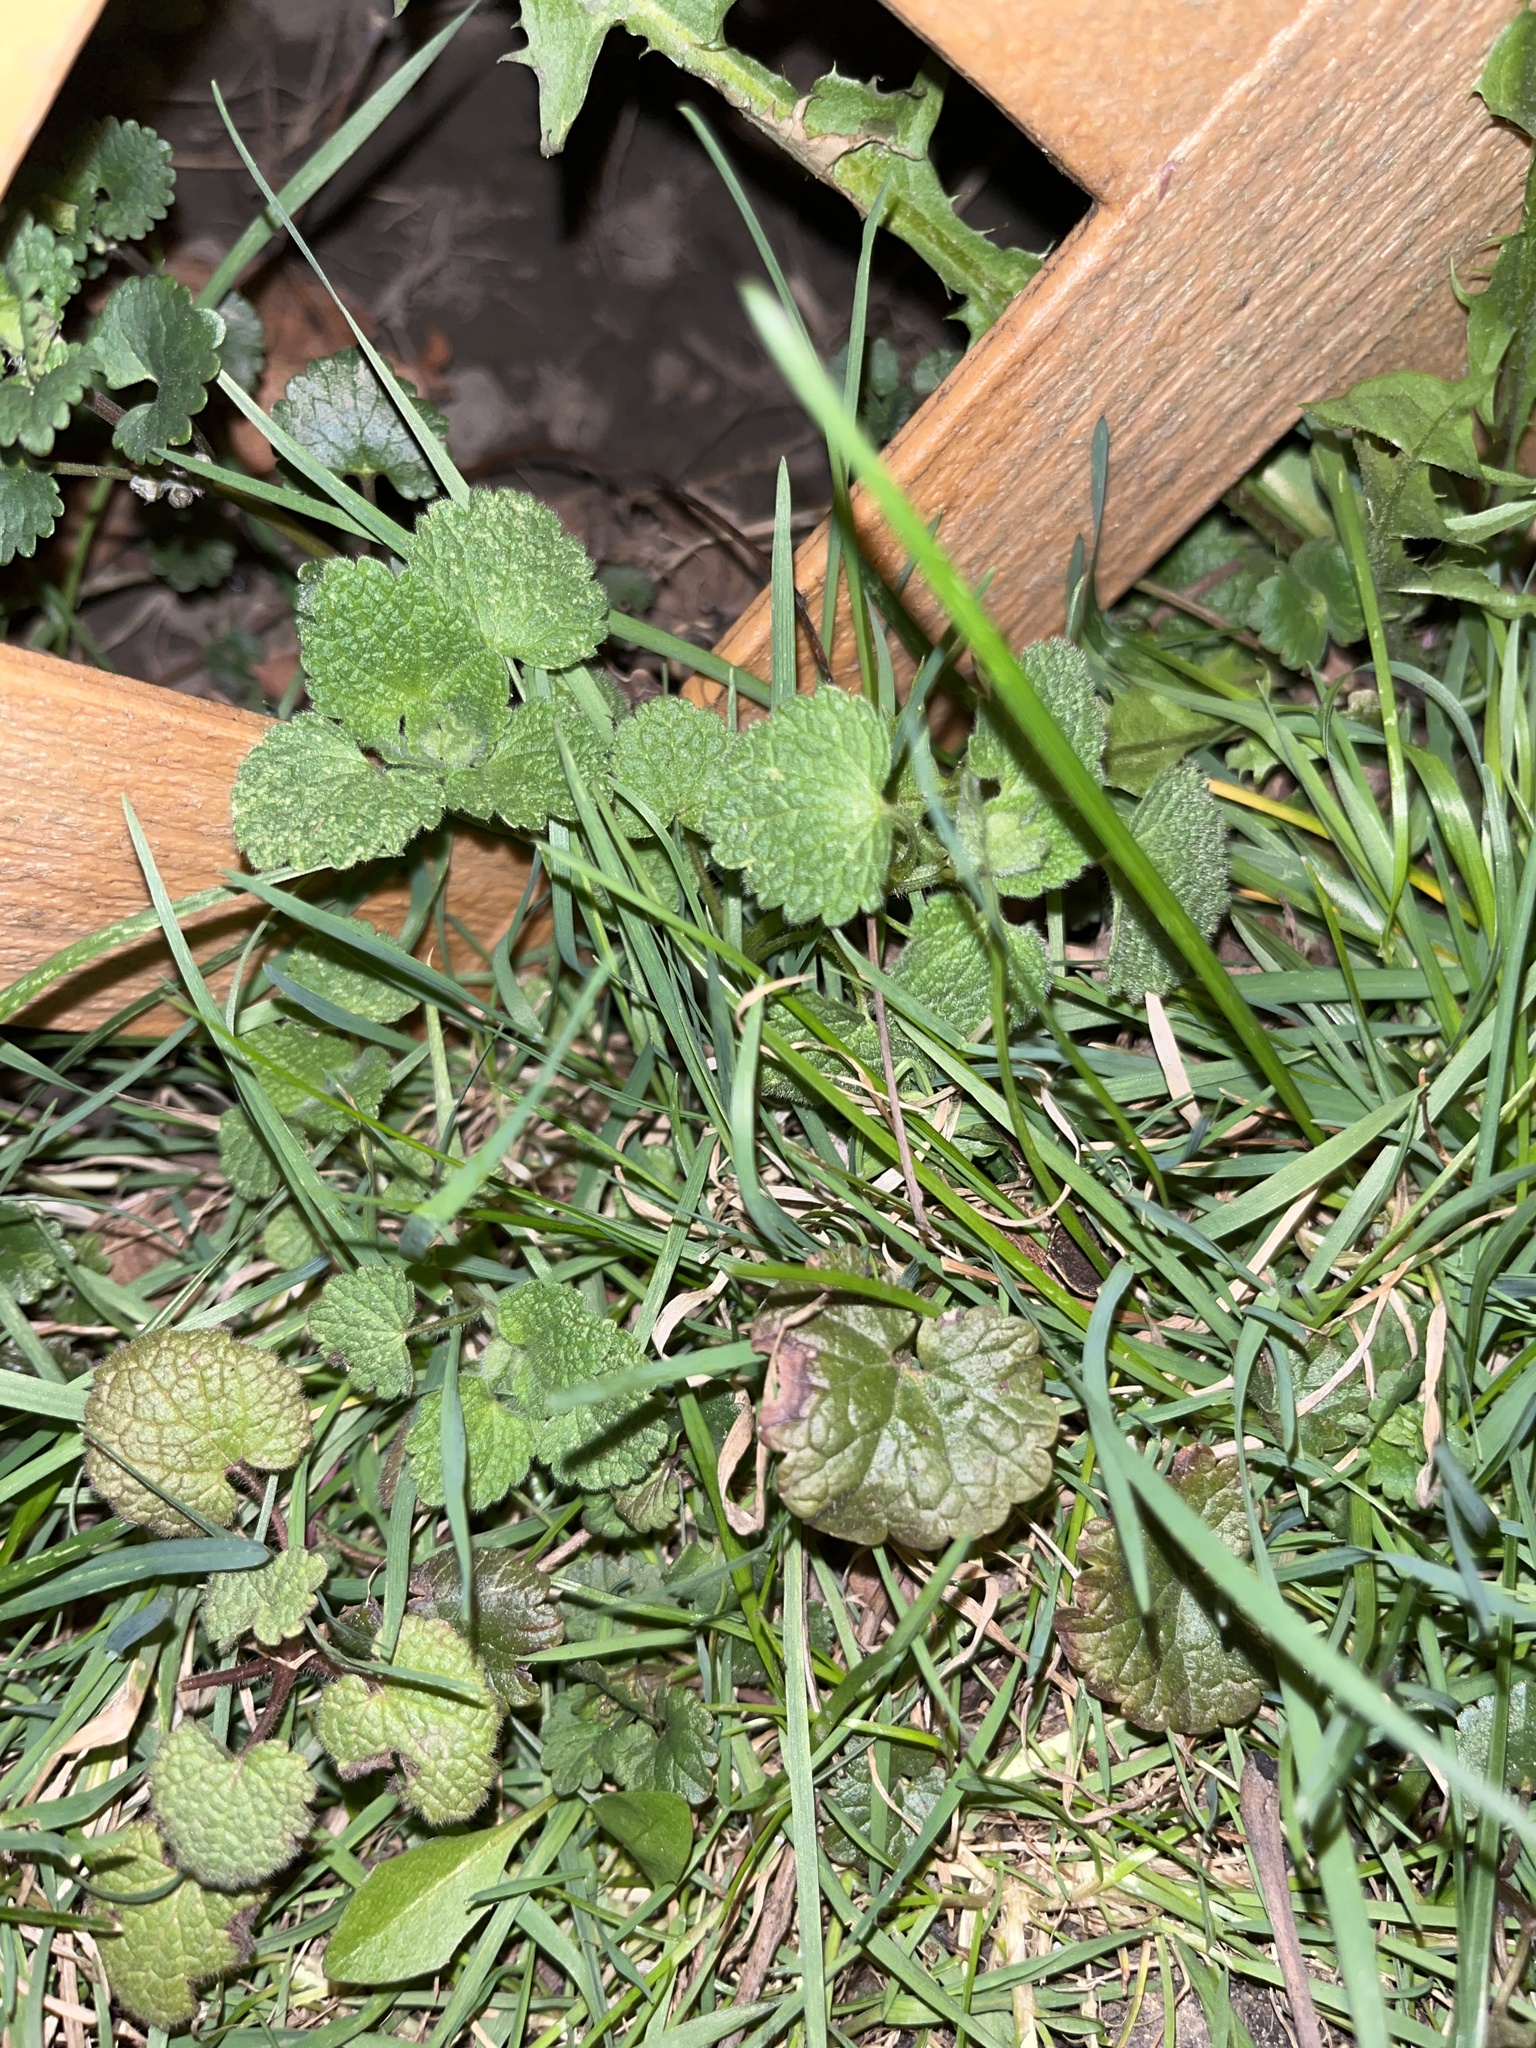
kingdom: Plantae
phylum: Tracheophyta
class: Magnoliopsida
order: Lamiales
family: Lamiaceae
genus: Lamium
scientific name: Lamium purpureum
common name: Red dead-nettle
